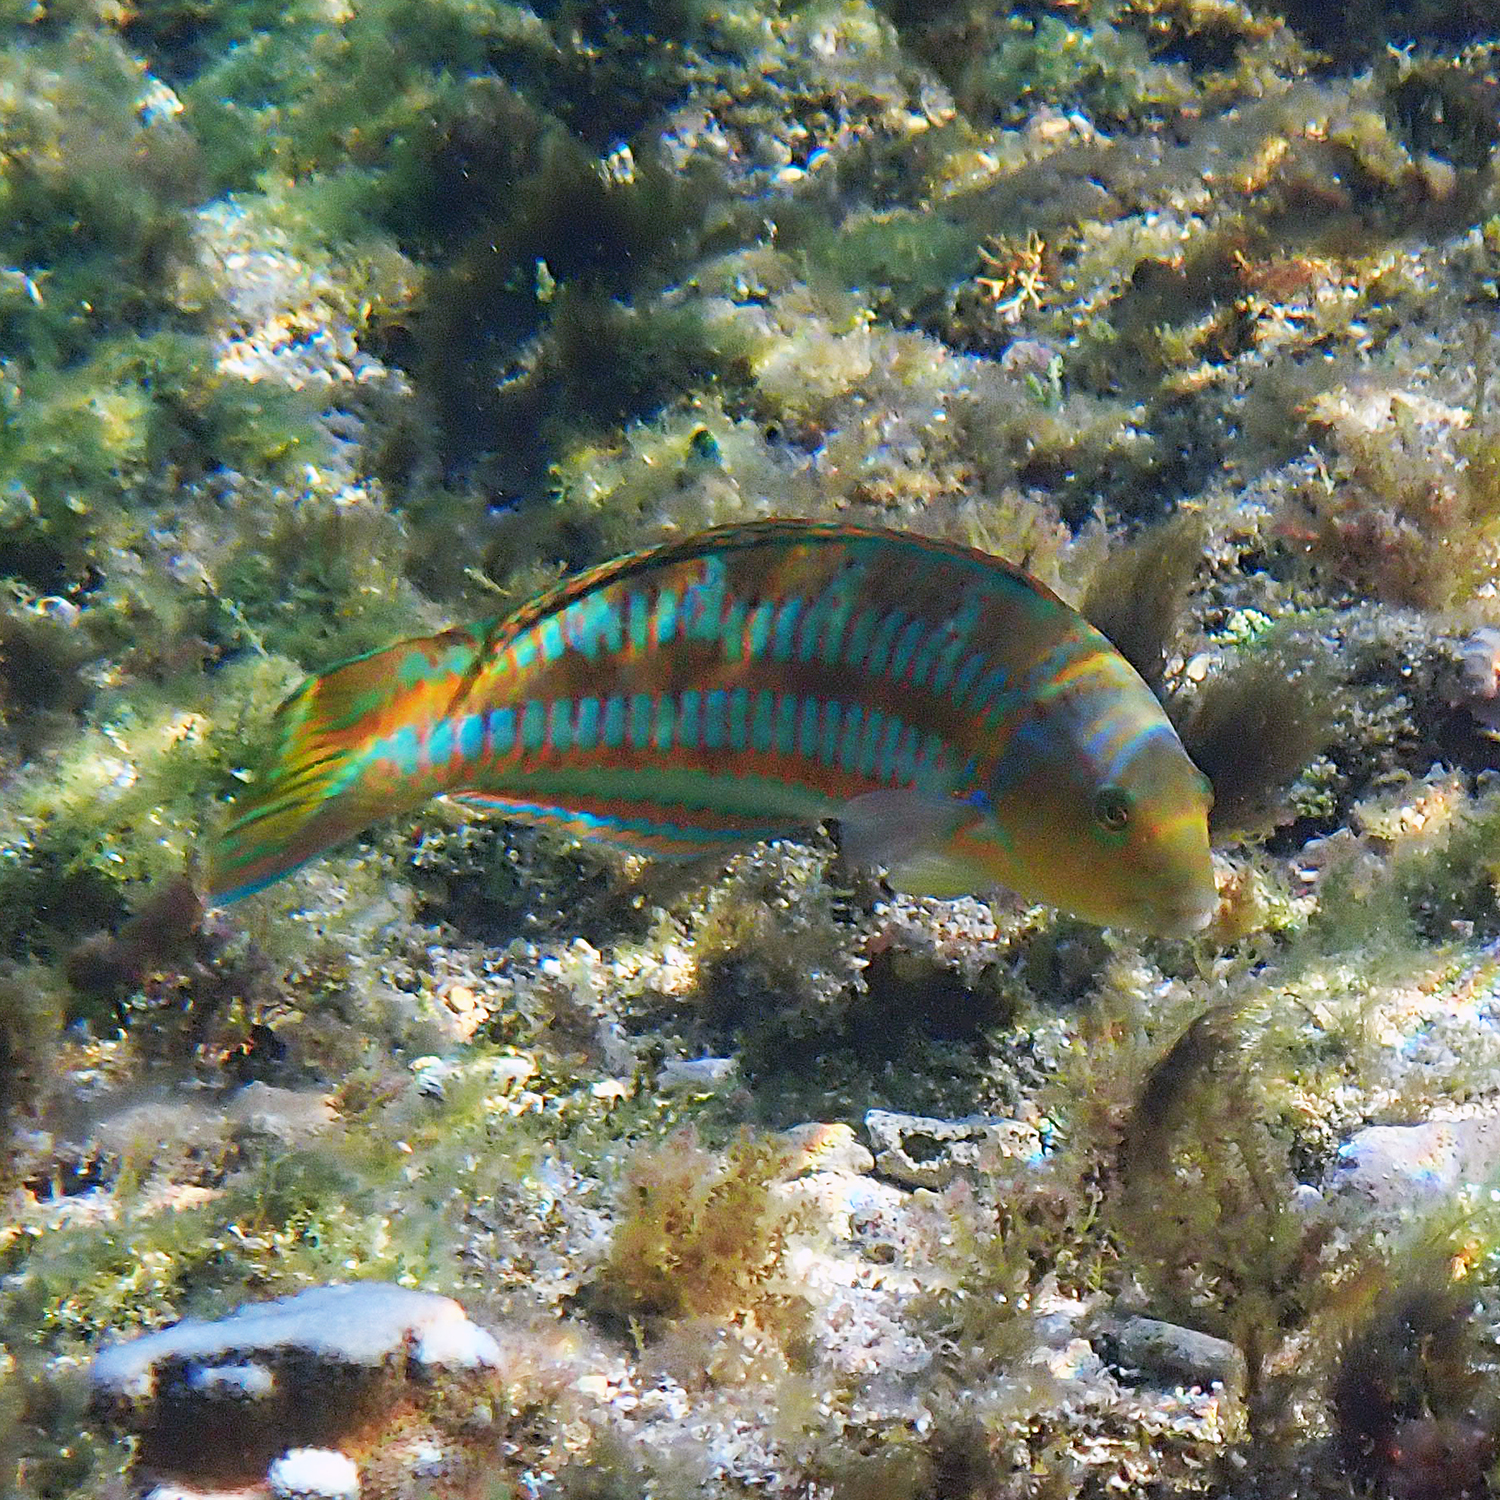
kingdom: Animalia
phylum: Chordata
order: Perciformes
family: Labridae
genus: Thalassoma
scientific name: Thalassoma trilobatum
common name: Christmas wrasse
